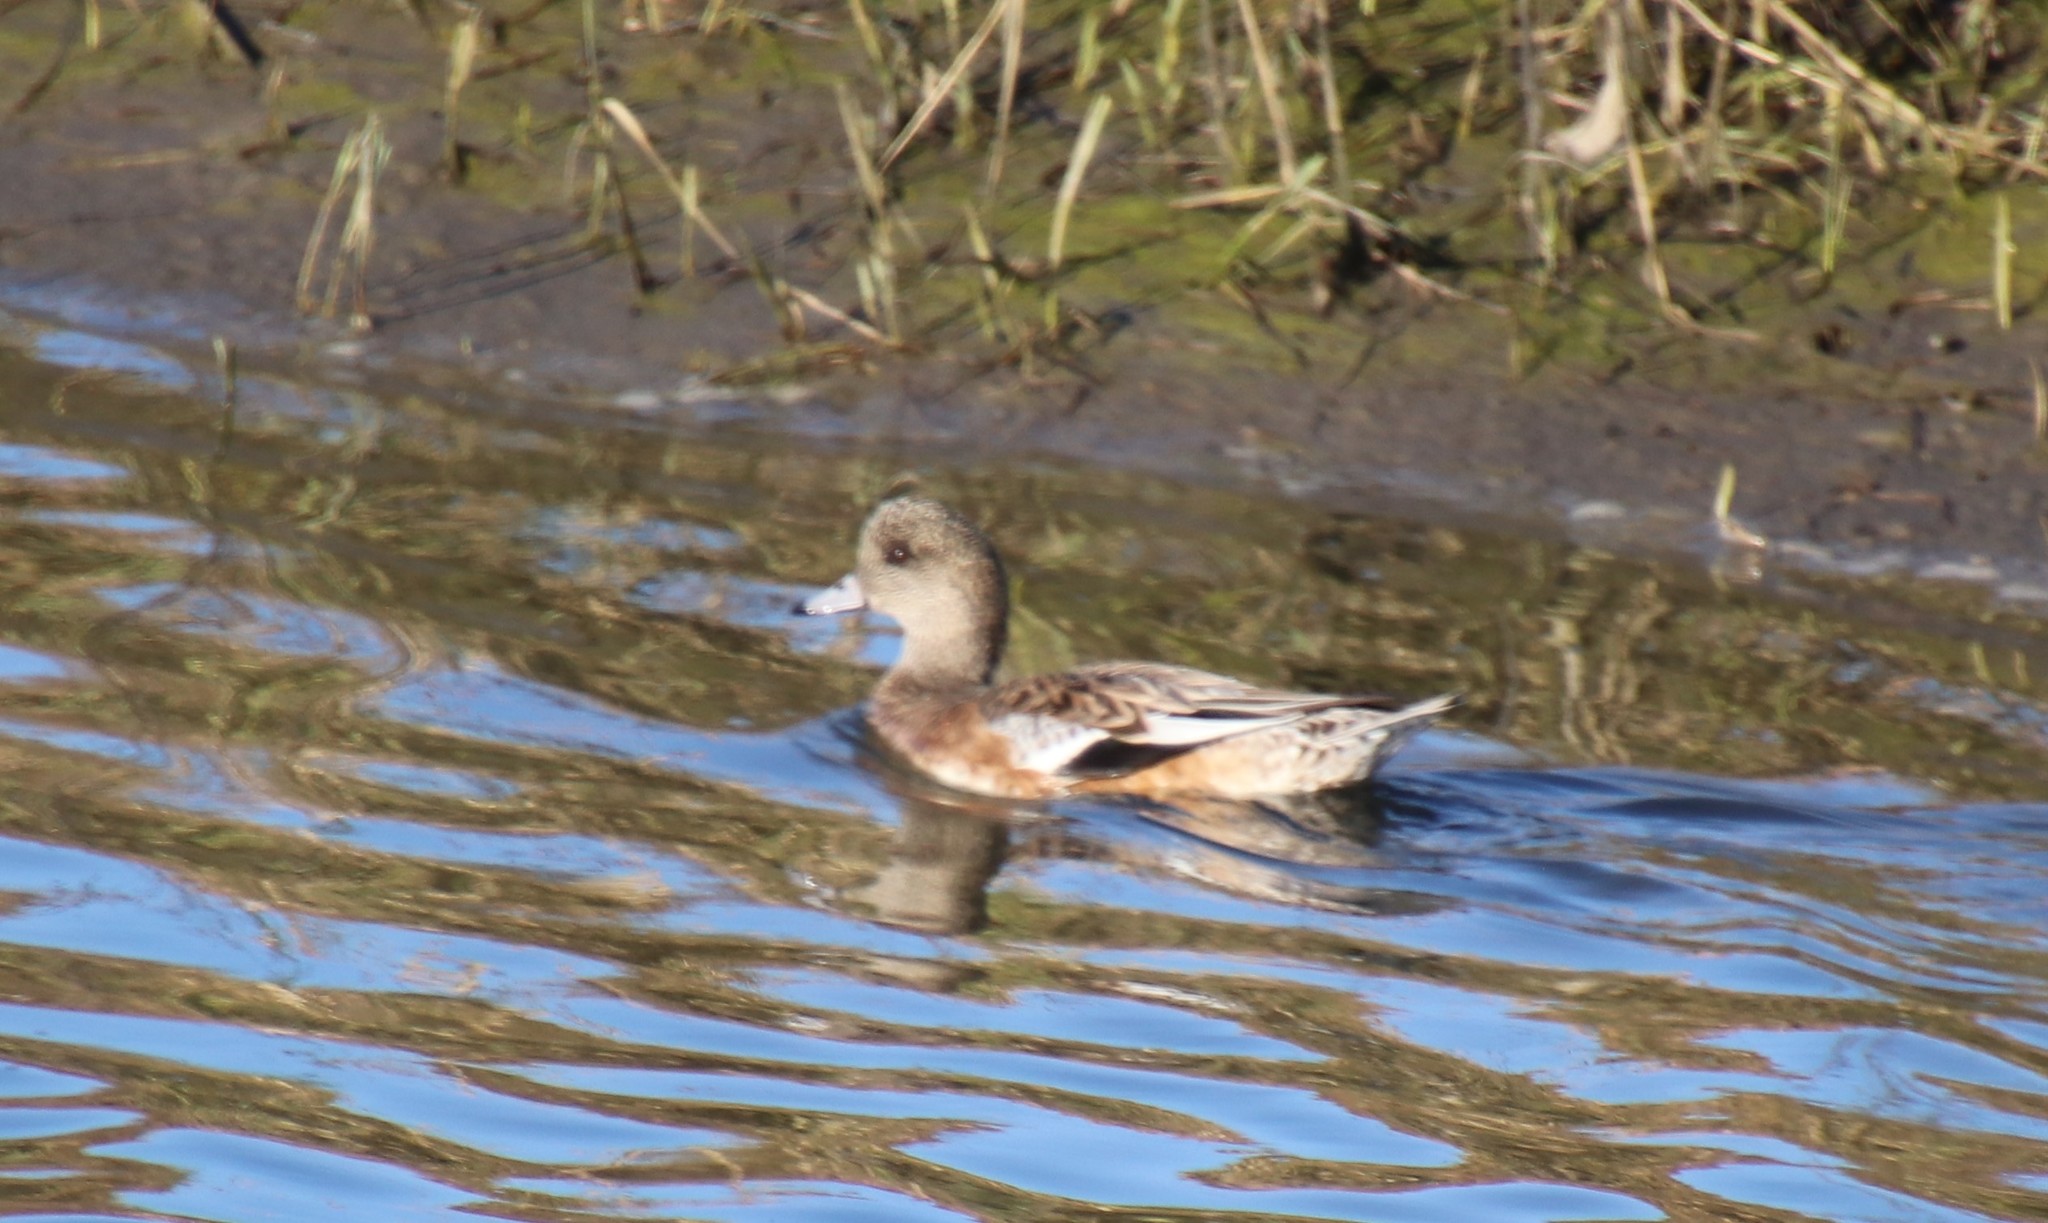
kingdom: Animalia
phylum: Chordata
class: Aves
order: Anseriformes
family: Anatidae
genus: Mareca
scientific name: Mareca americana
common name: American wigeon
